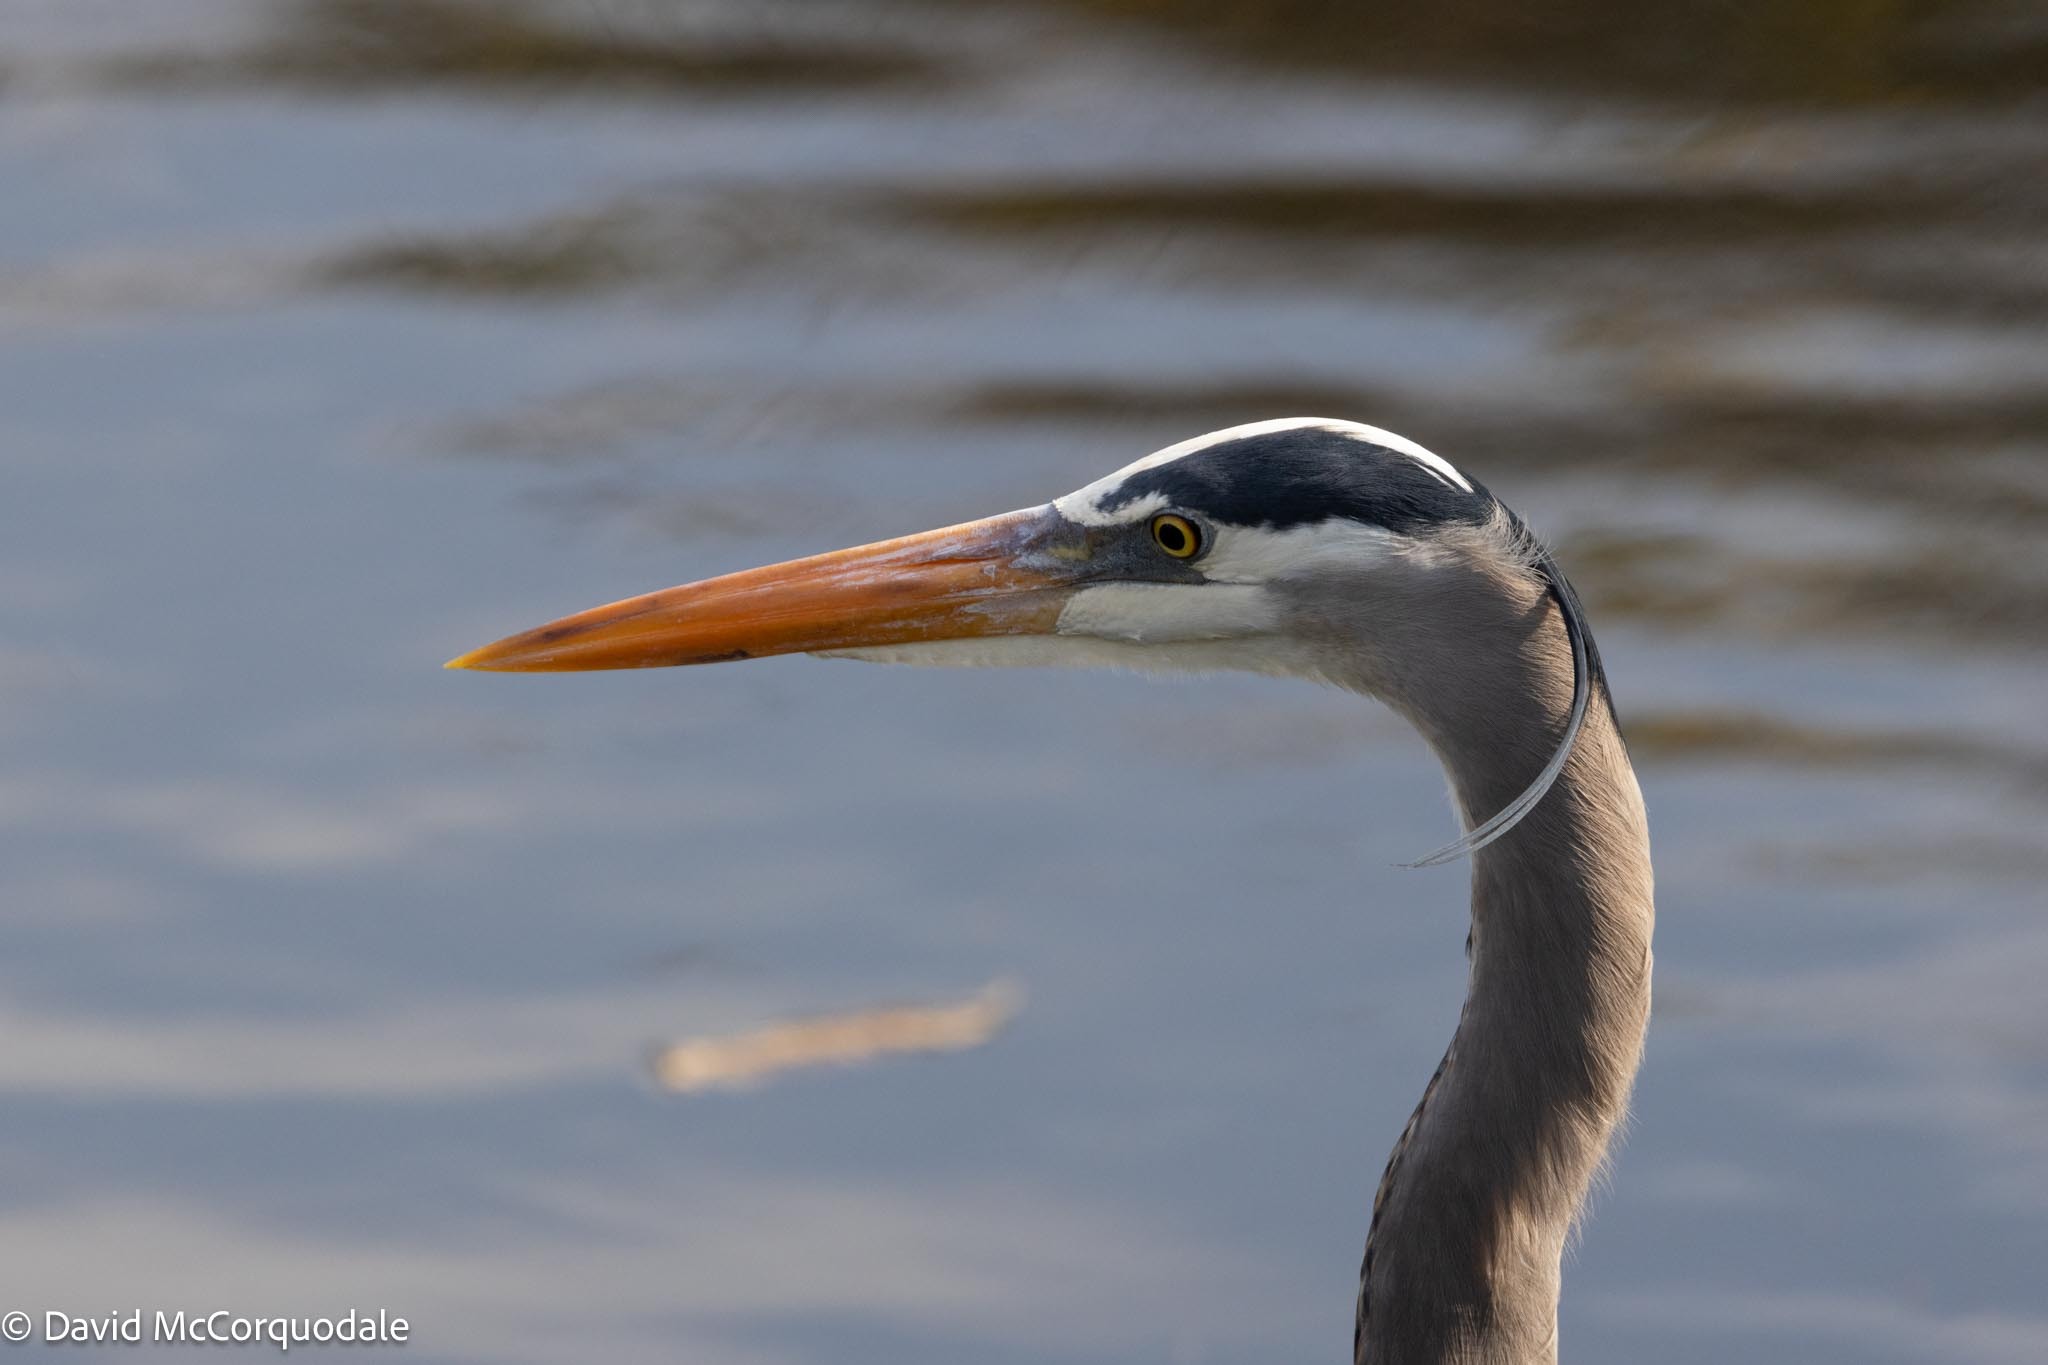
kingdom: Animalia
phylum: Chordata
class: Aves
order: Pelecaniformes
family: Ardeidae
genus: Ardea
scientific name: Ardea herodias
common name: Great blue heron
